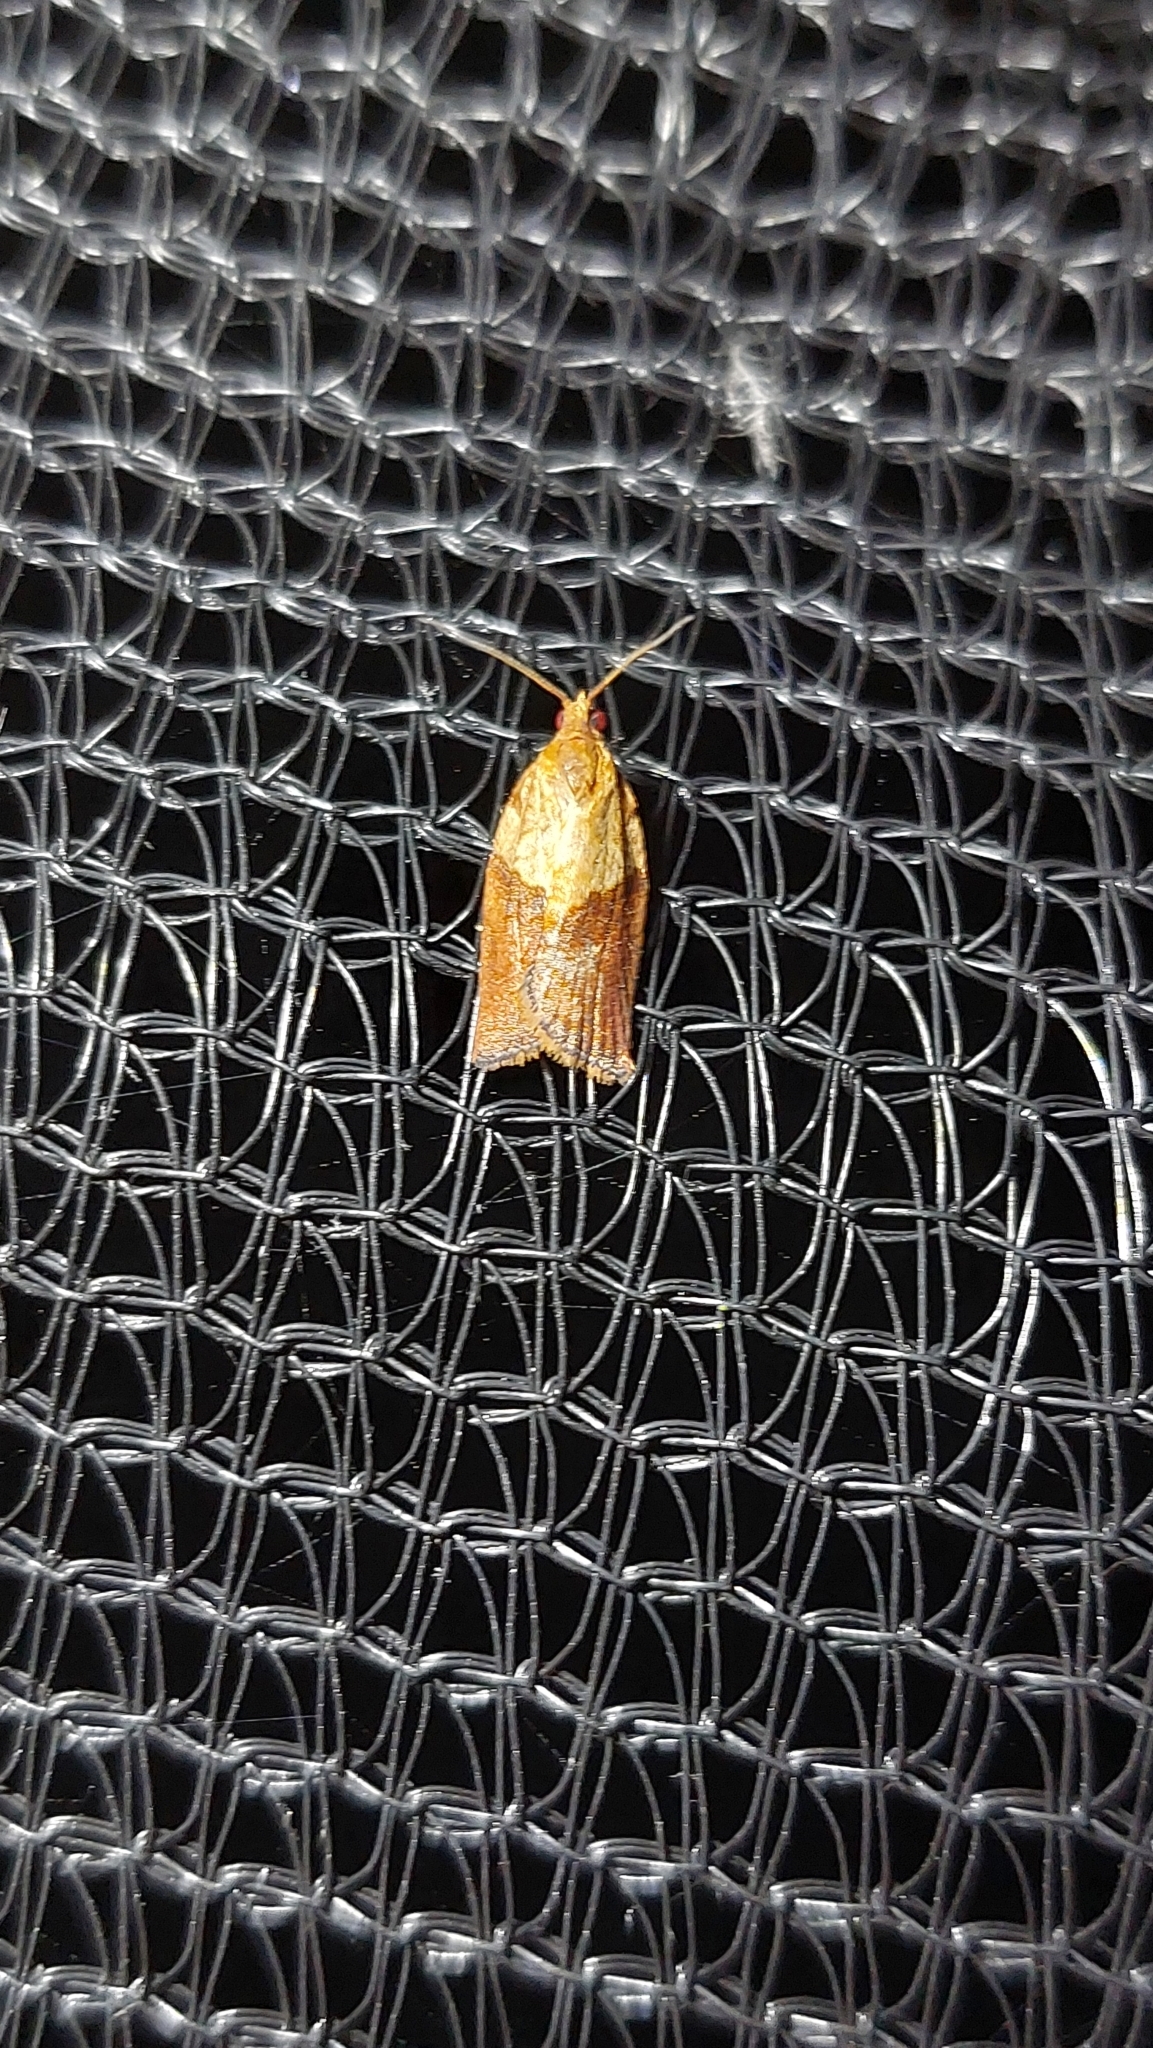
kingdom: Animalia
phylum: Arthropoda
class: Insecta
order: Lepidoptera
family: Tortricidae
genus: Epiphyas
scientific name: Epiphyas postvittana
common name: Light brown apple moth
